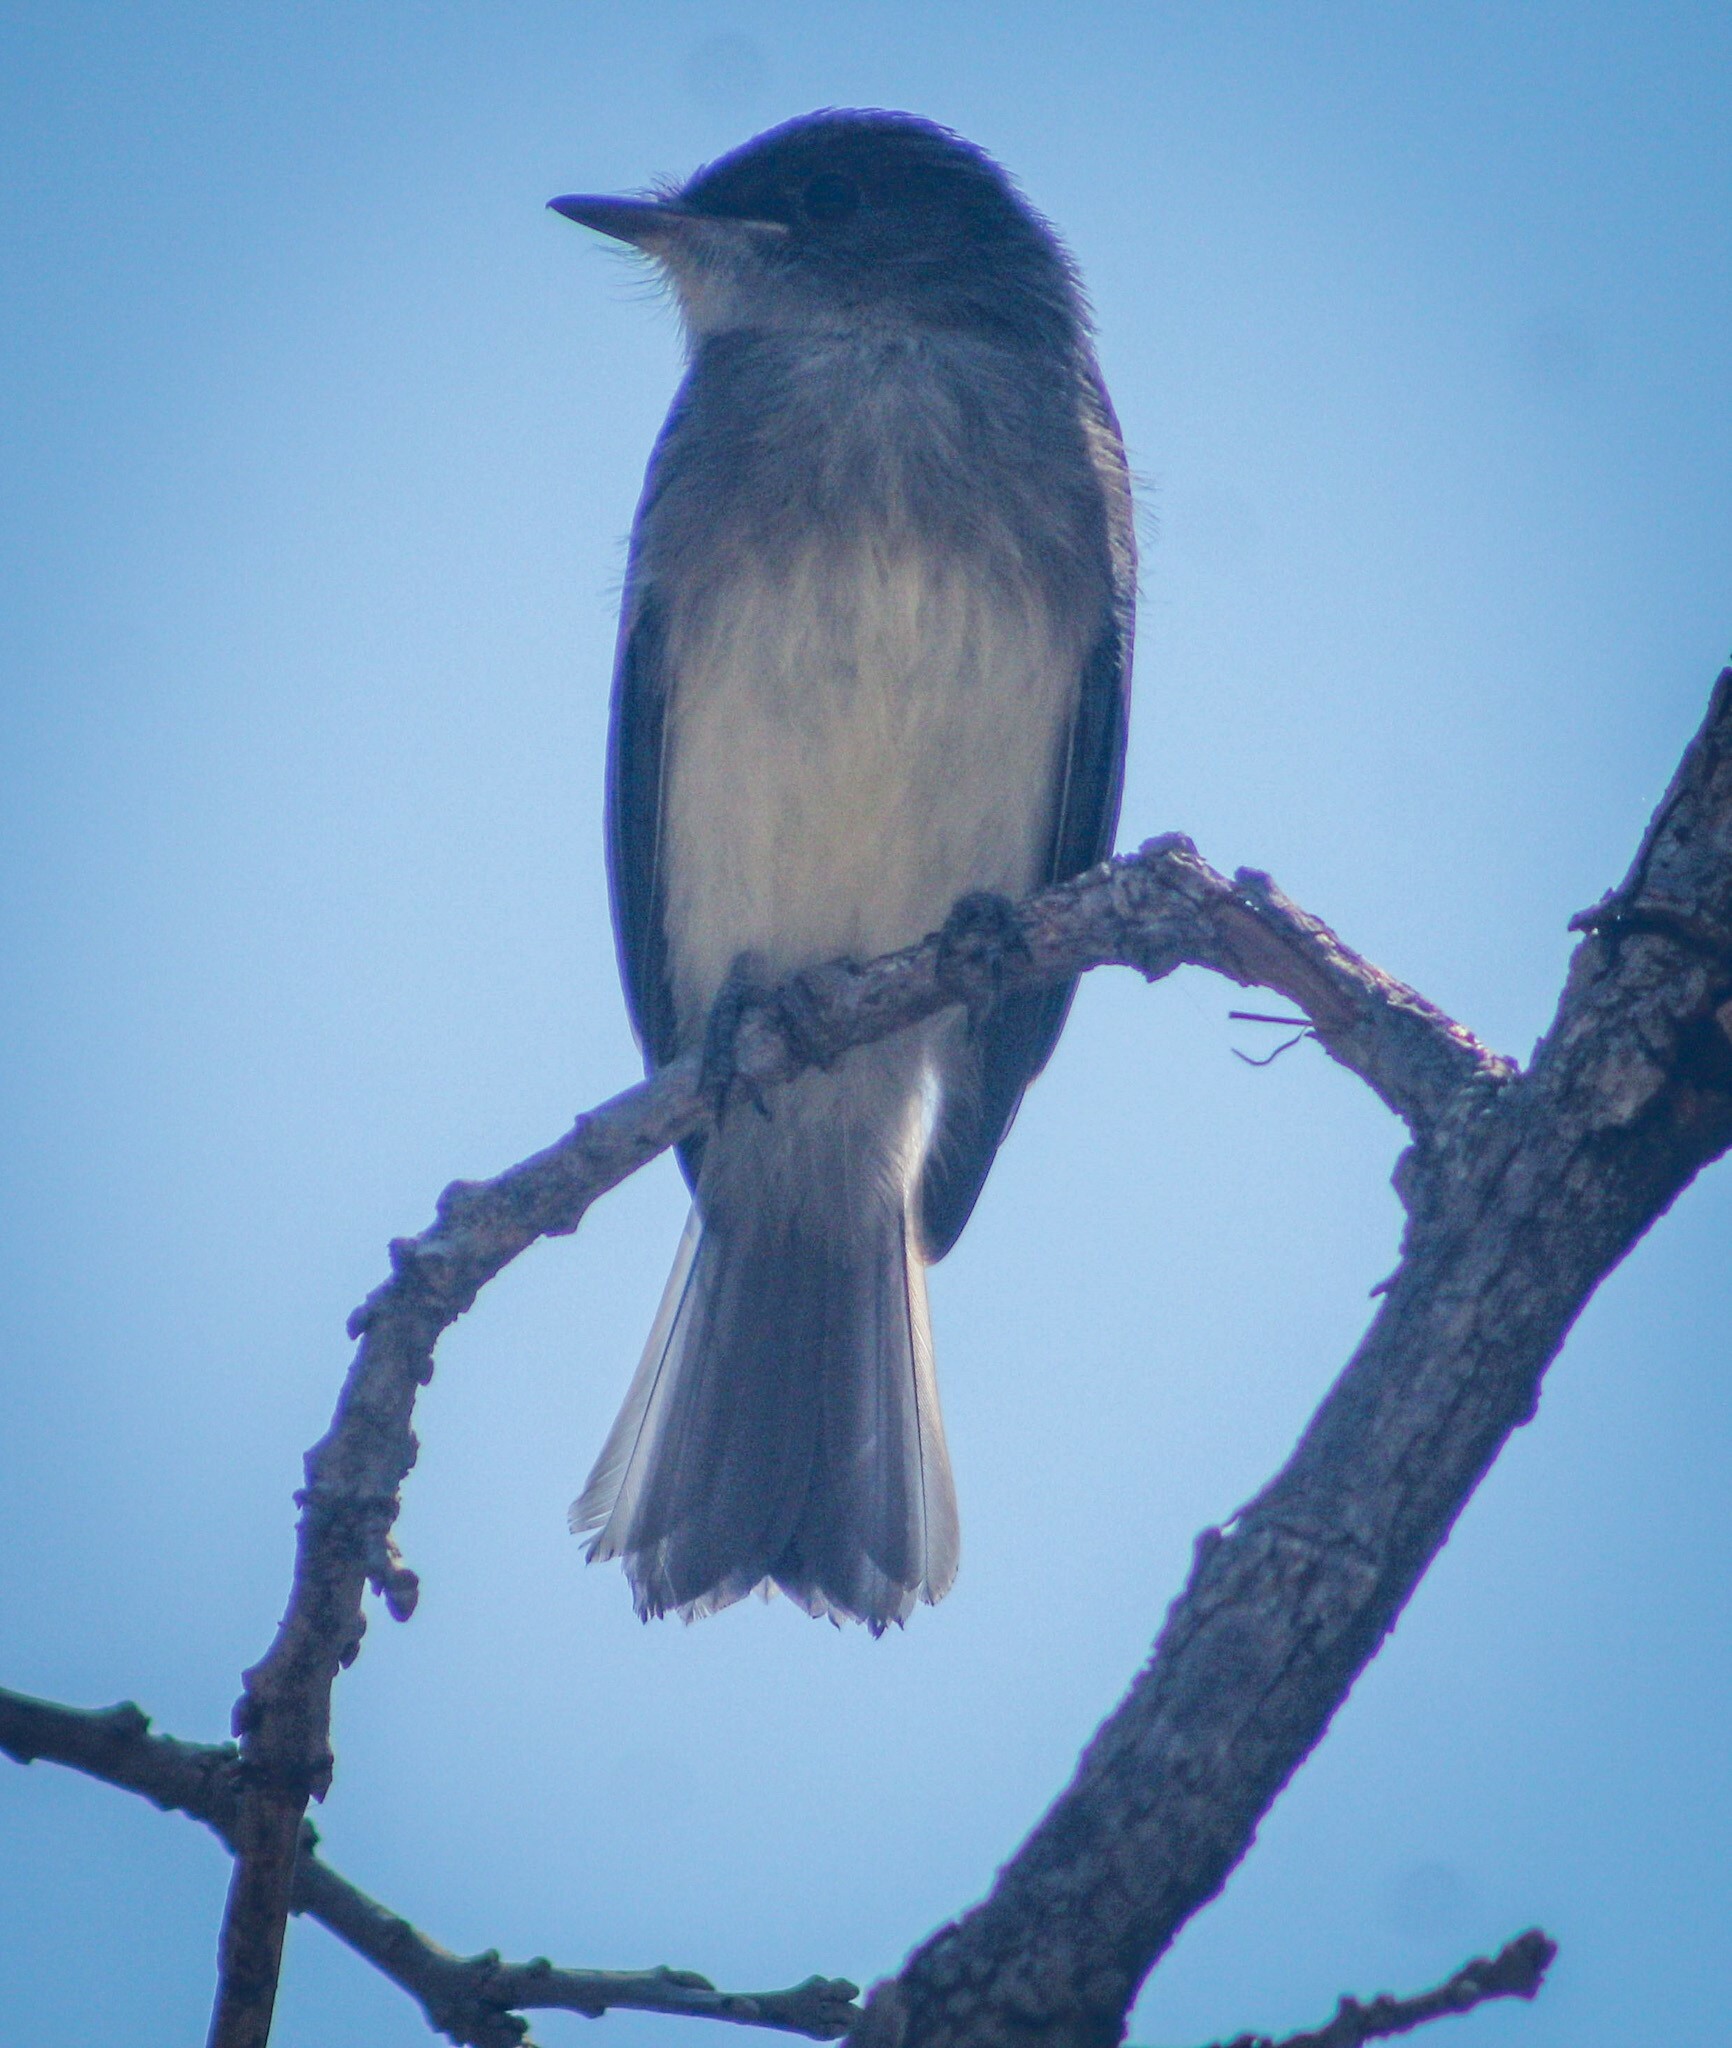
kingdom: Animalia
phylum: Chordata
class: Aves
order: Passeriformes
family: Tyrannidae
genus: Sayornis
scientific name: Sayornis phoebe
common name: Eastern phoebe
